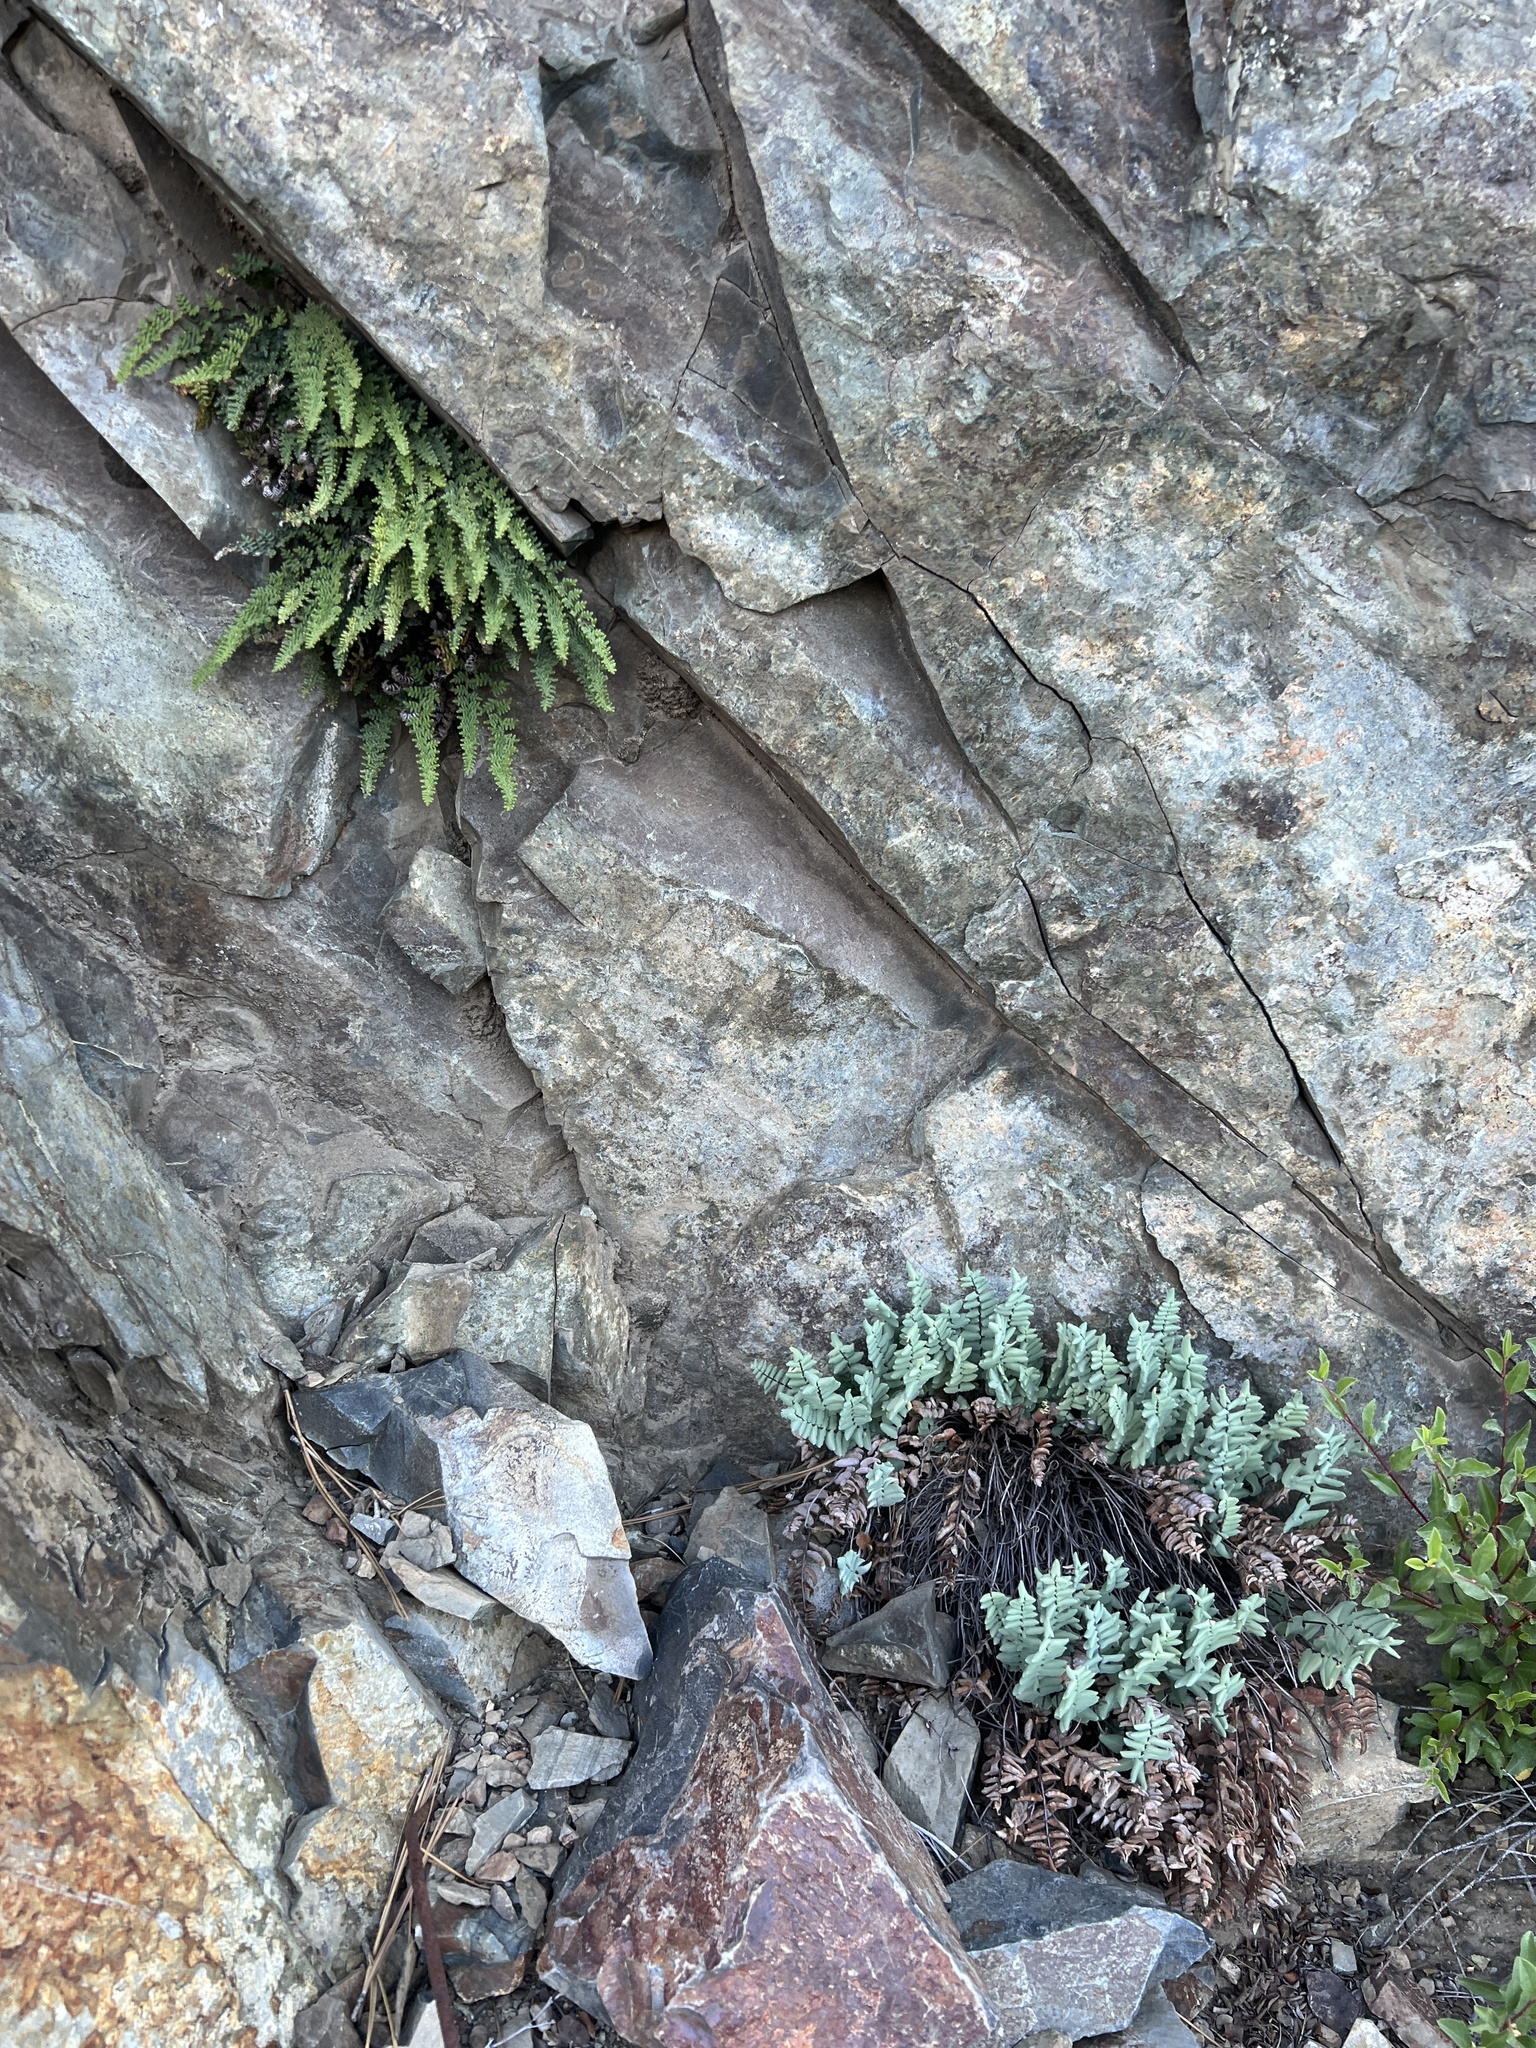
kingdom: Plantae
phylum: Tracheophyta
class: Polypodiopsida
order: Polypodiales
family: Pteridaceae
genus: Pellaea
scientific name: Pellaea bridgesii
